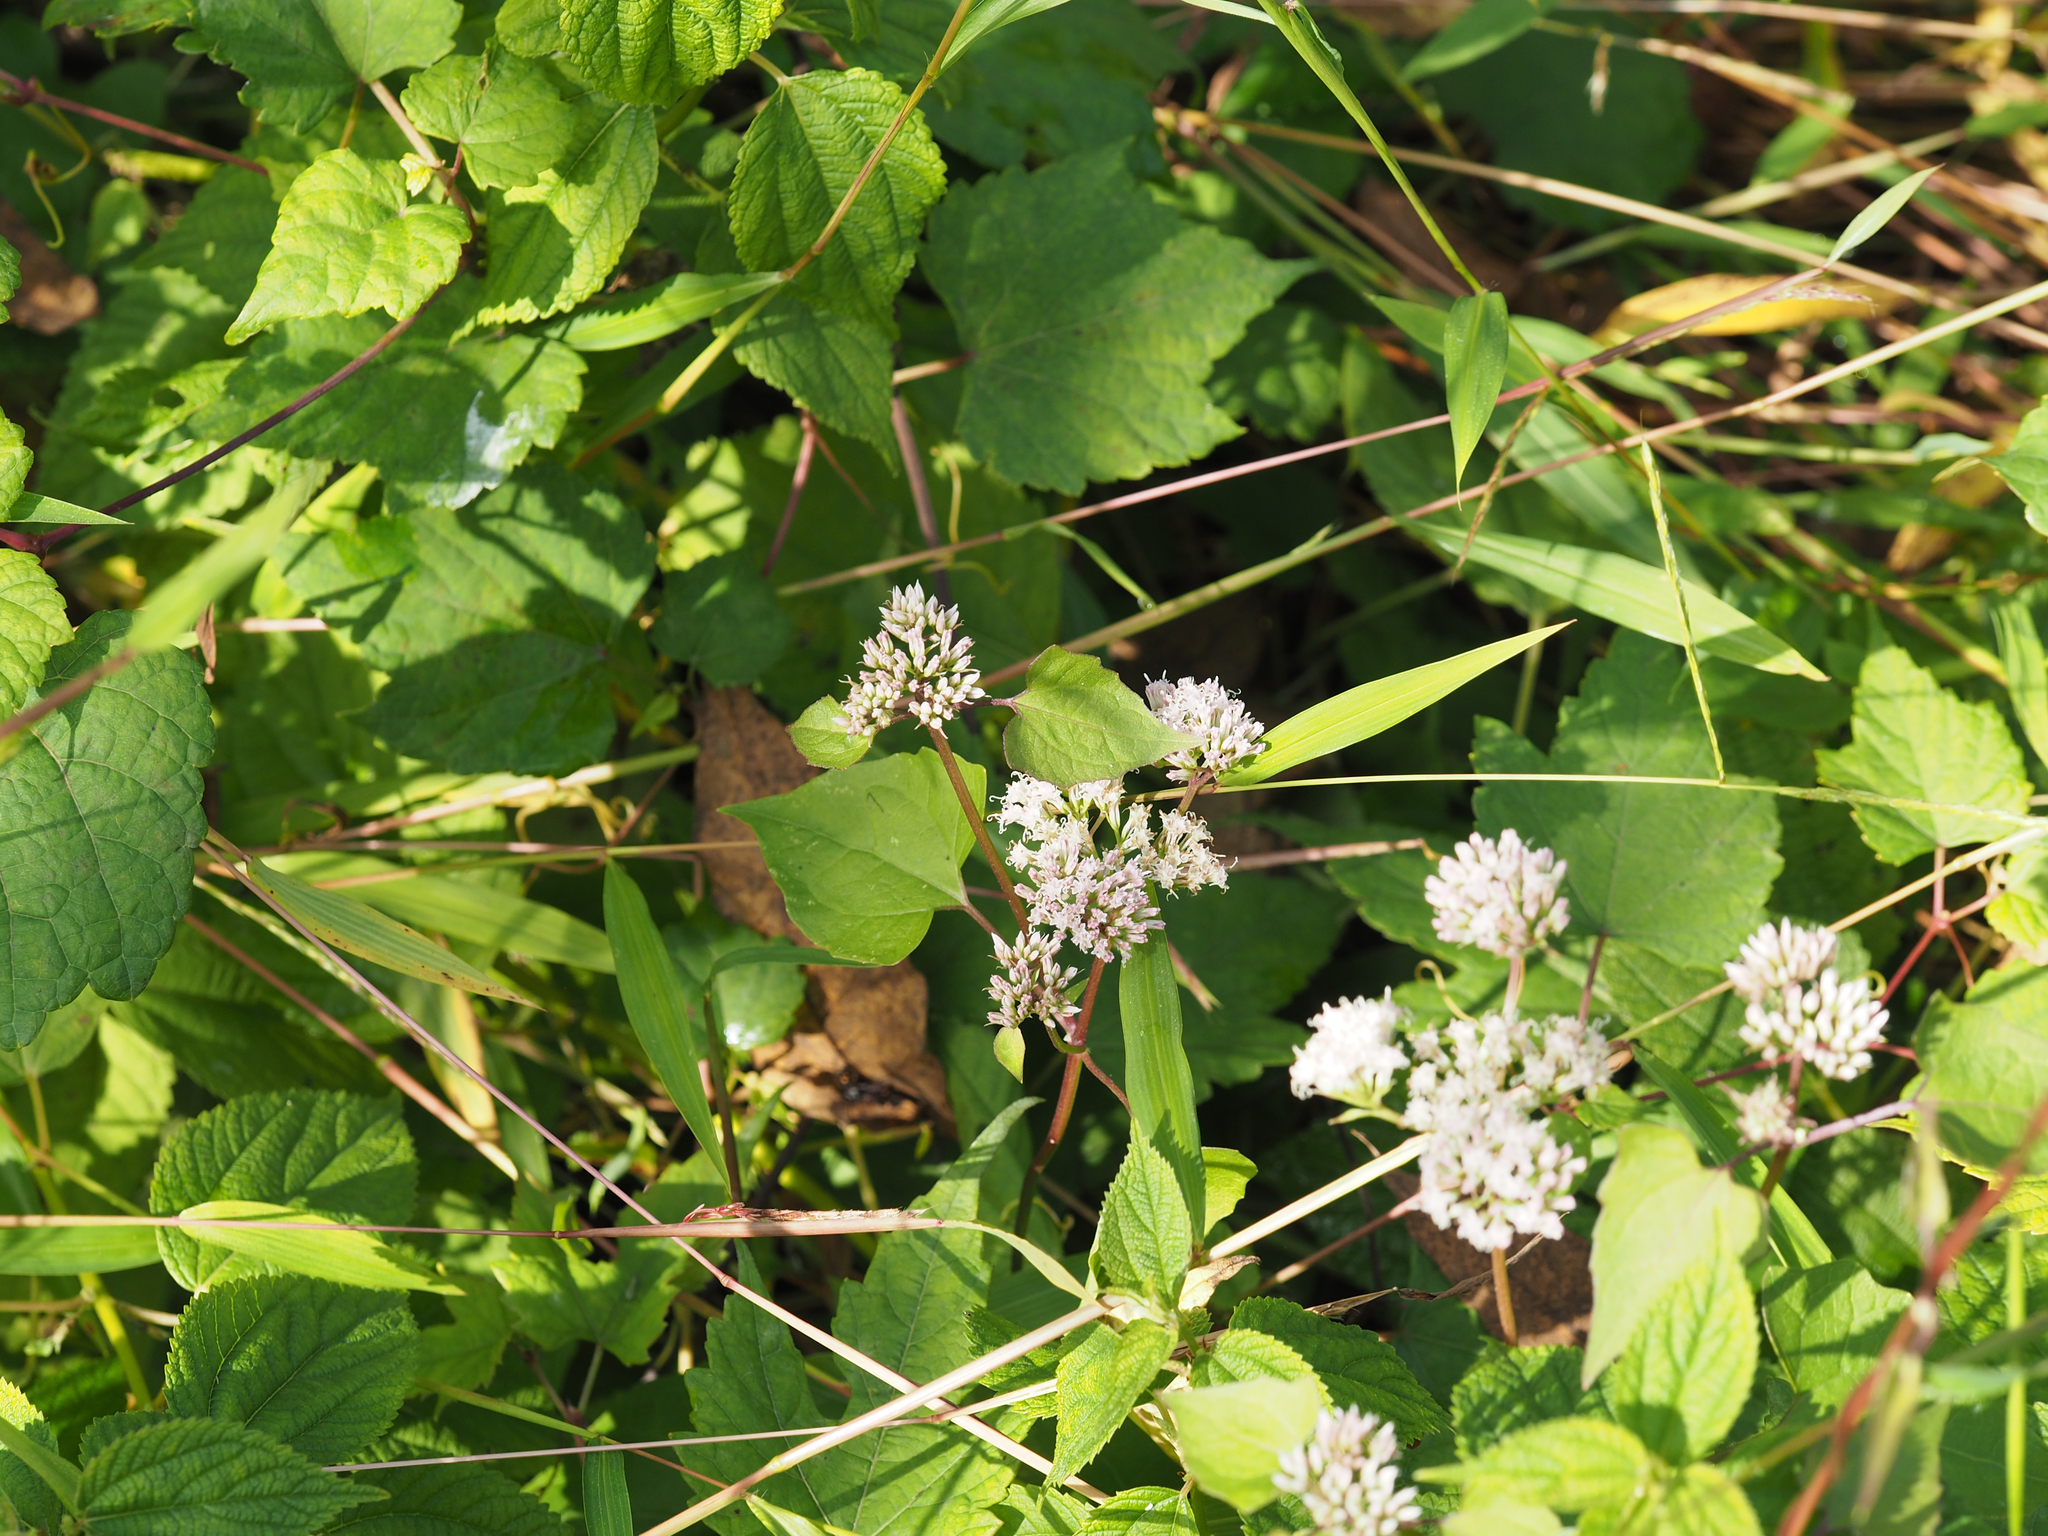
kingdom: Plantae
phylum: Tracheophyta
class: Magnoliopsida
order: Asterales
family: Asteraceae
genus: Mikania
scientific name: Mikania scandens
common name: Climbing hempvine
